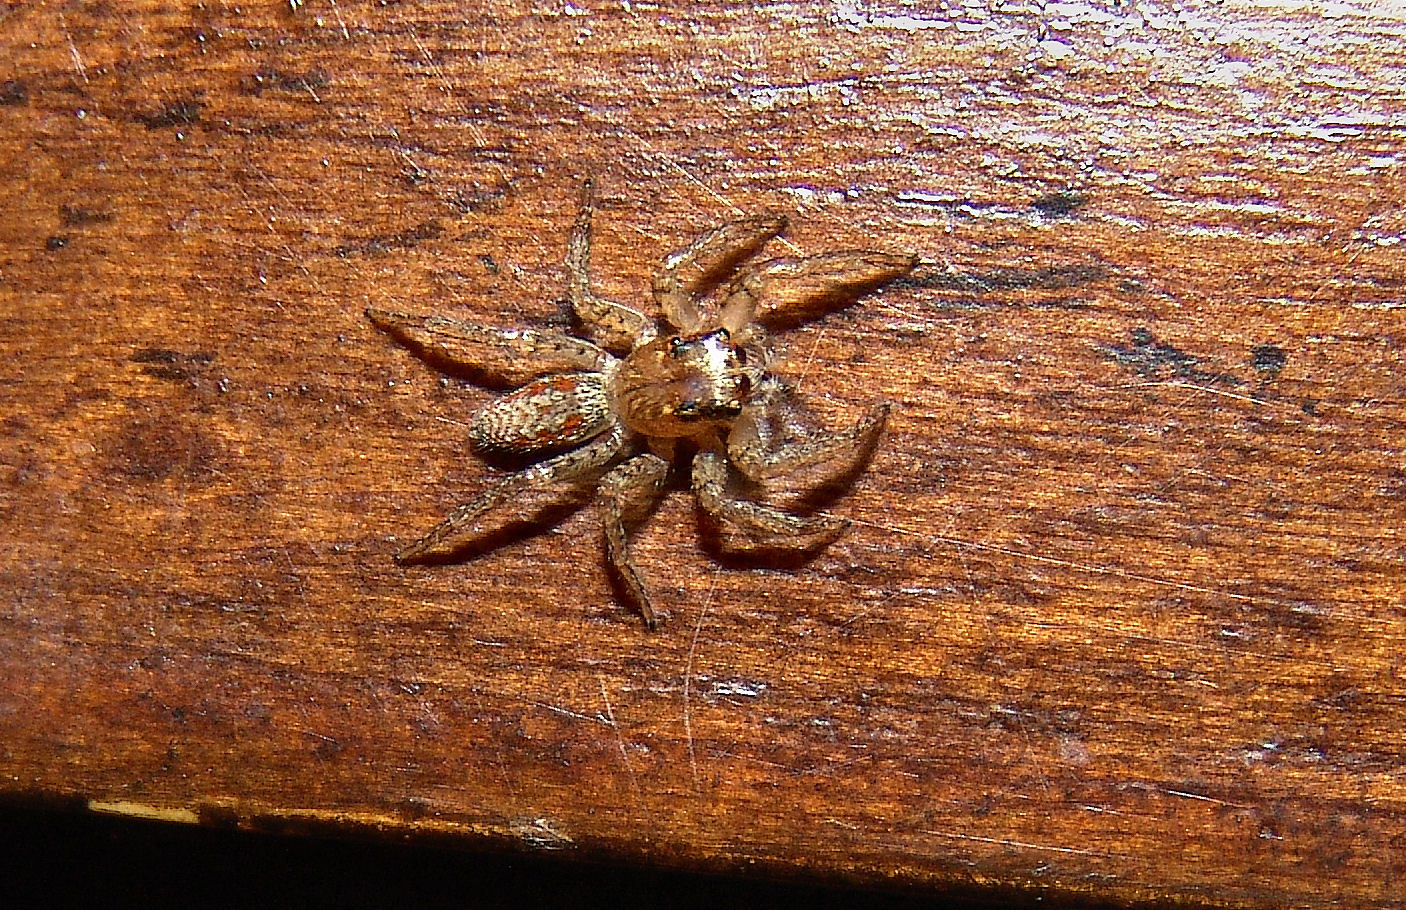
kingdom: Animalia
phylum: Arthropoda
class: Arachnida
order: Araneae
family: Salticidae
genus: Maevia
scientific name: Maevia inclemens
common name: Dimorphic jumper
